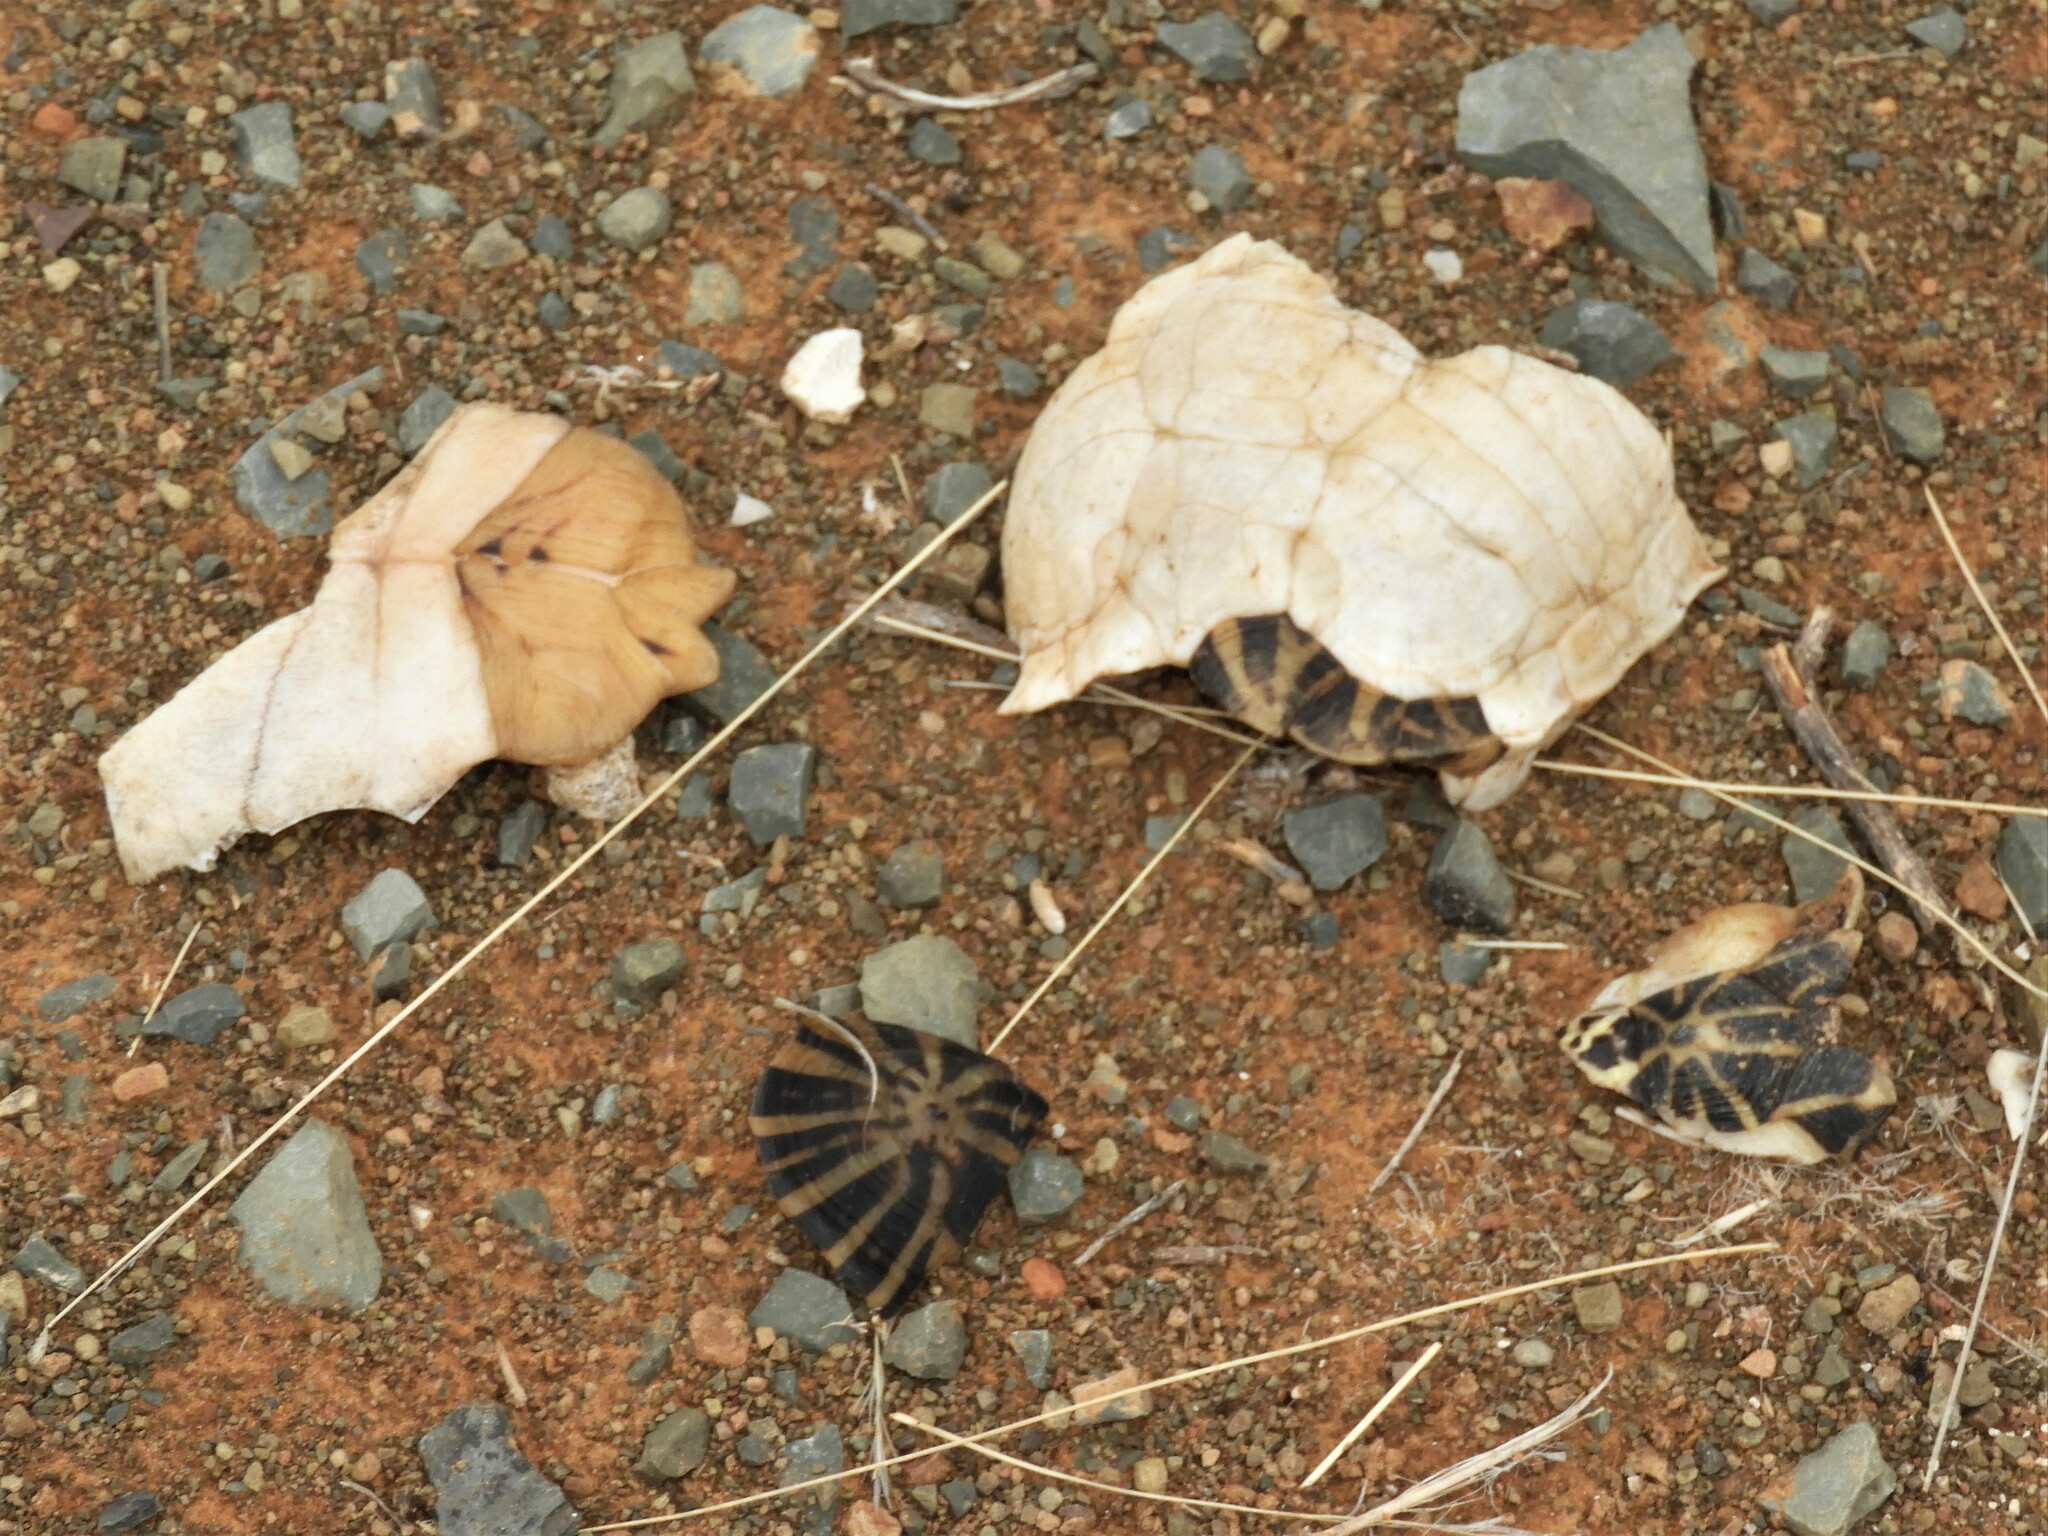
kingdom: Animalia
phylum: Chordata
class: Testudines
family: Testudinidae
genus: Psammobates
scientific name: Psammobates tentorius
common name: Tent tortoise
